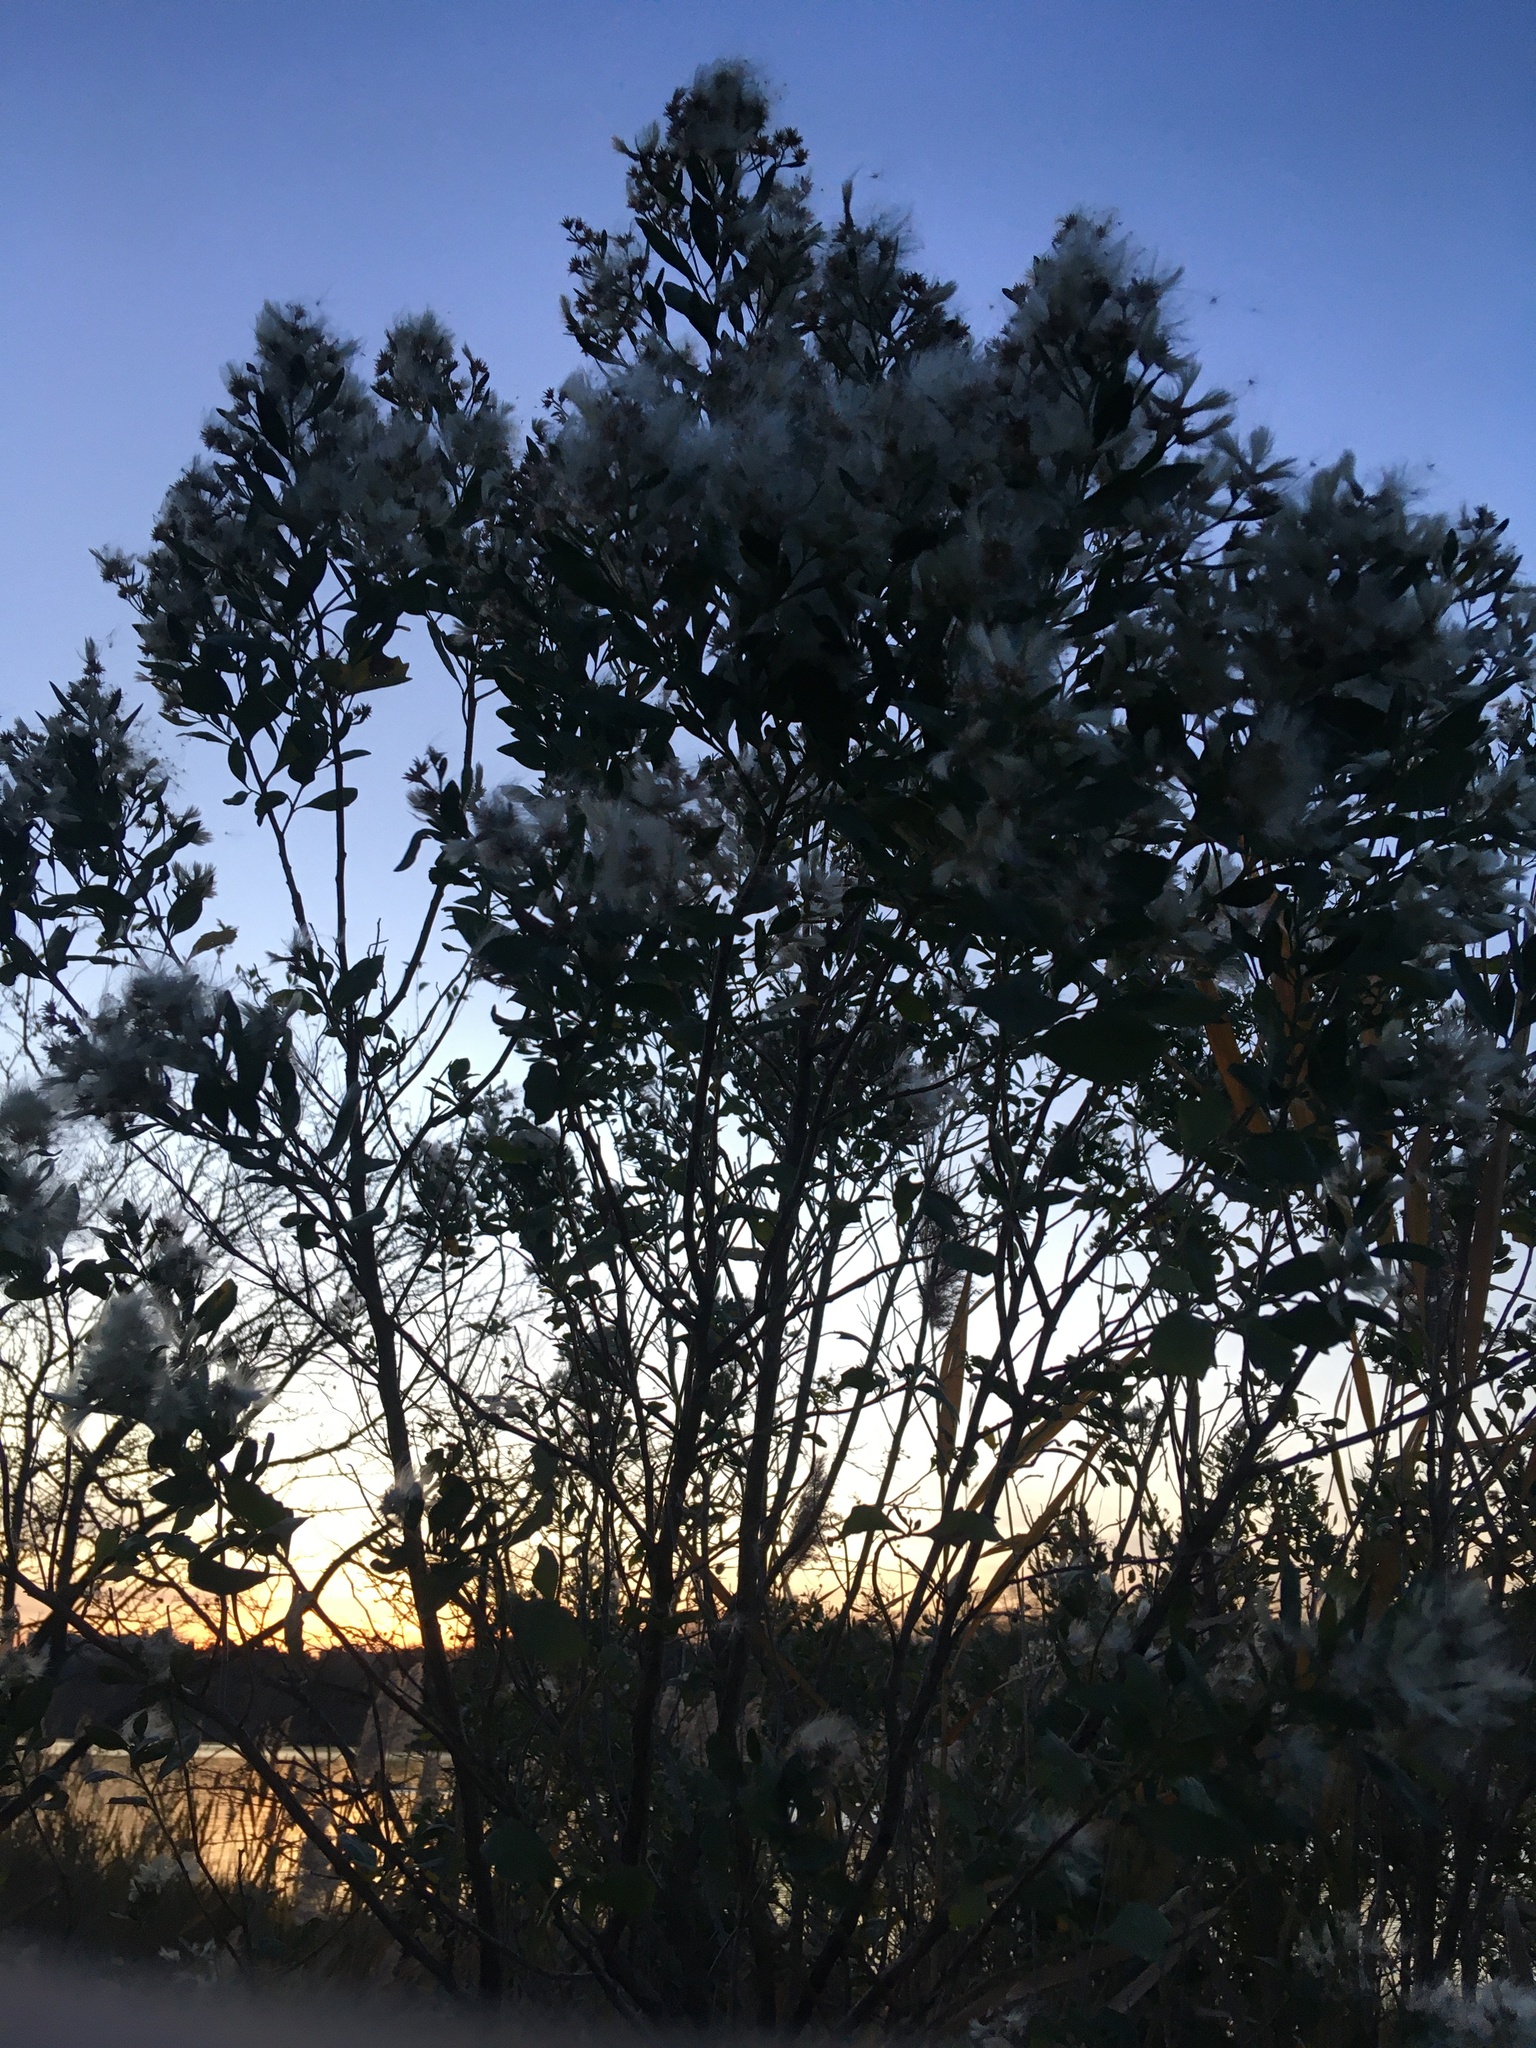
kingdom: Plantae
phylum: Tracheophyta
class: Magnoliopsida
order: Asterales
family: Asteraceae
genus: Baccharis
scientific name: Baccharis halimifolia
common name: Eastern baccharis
